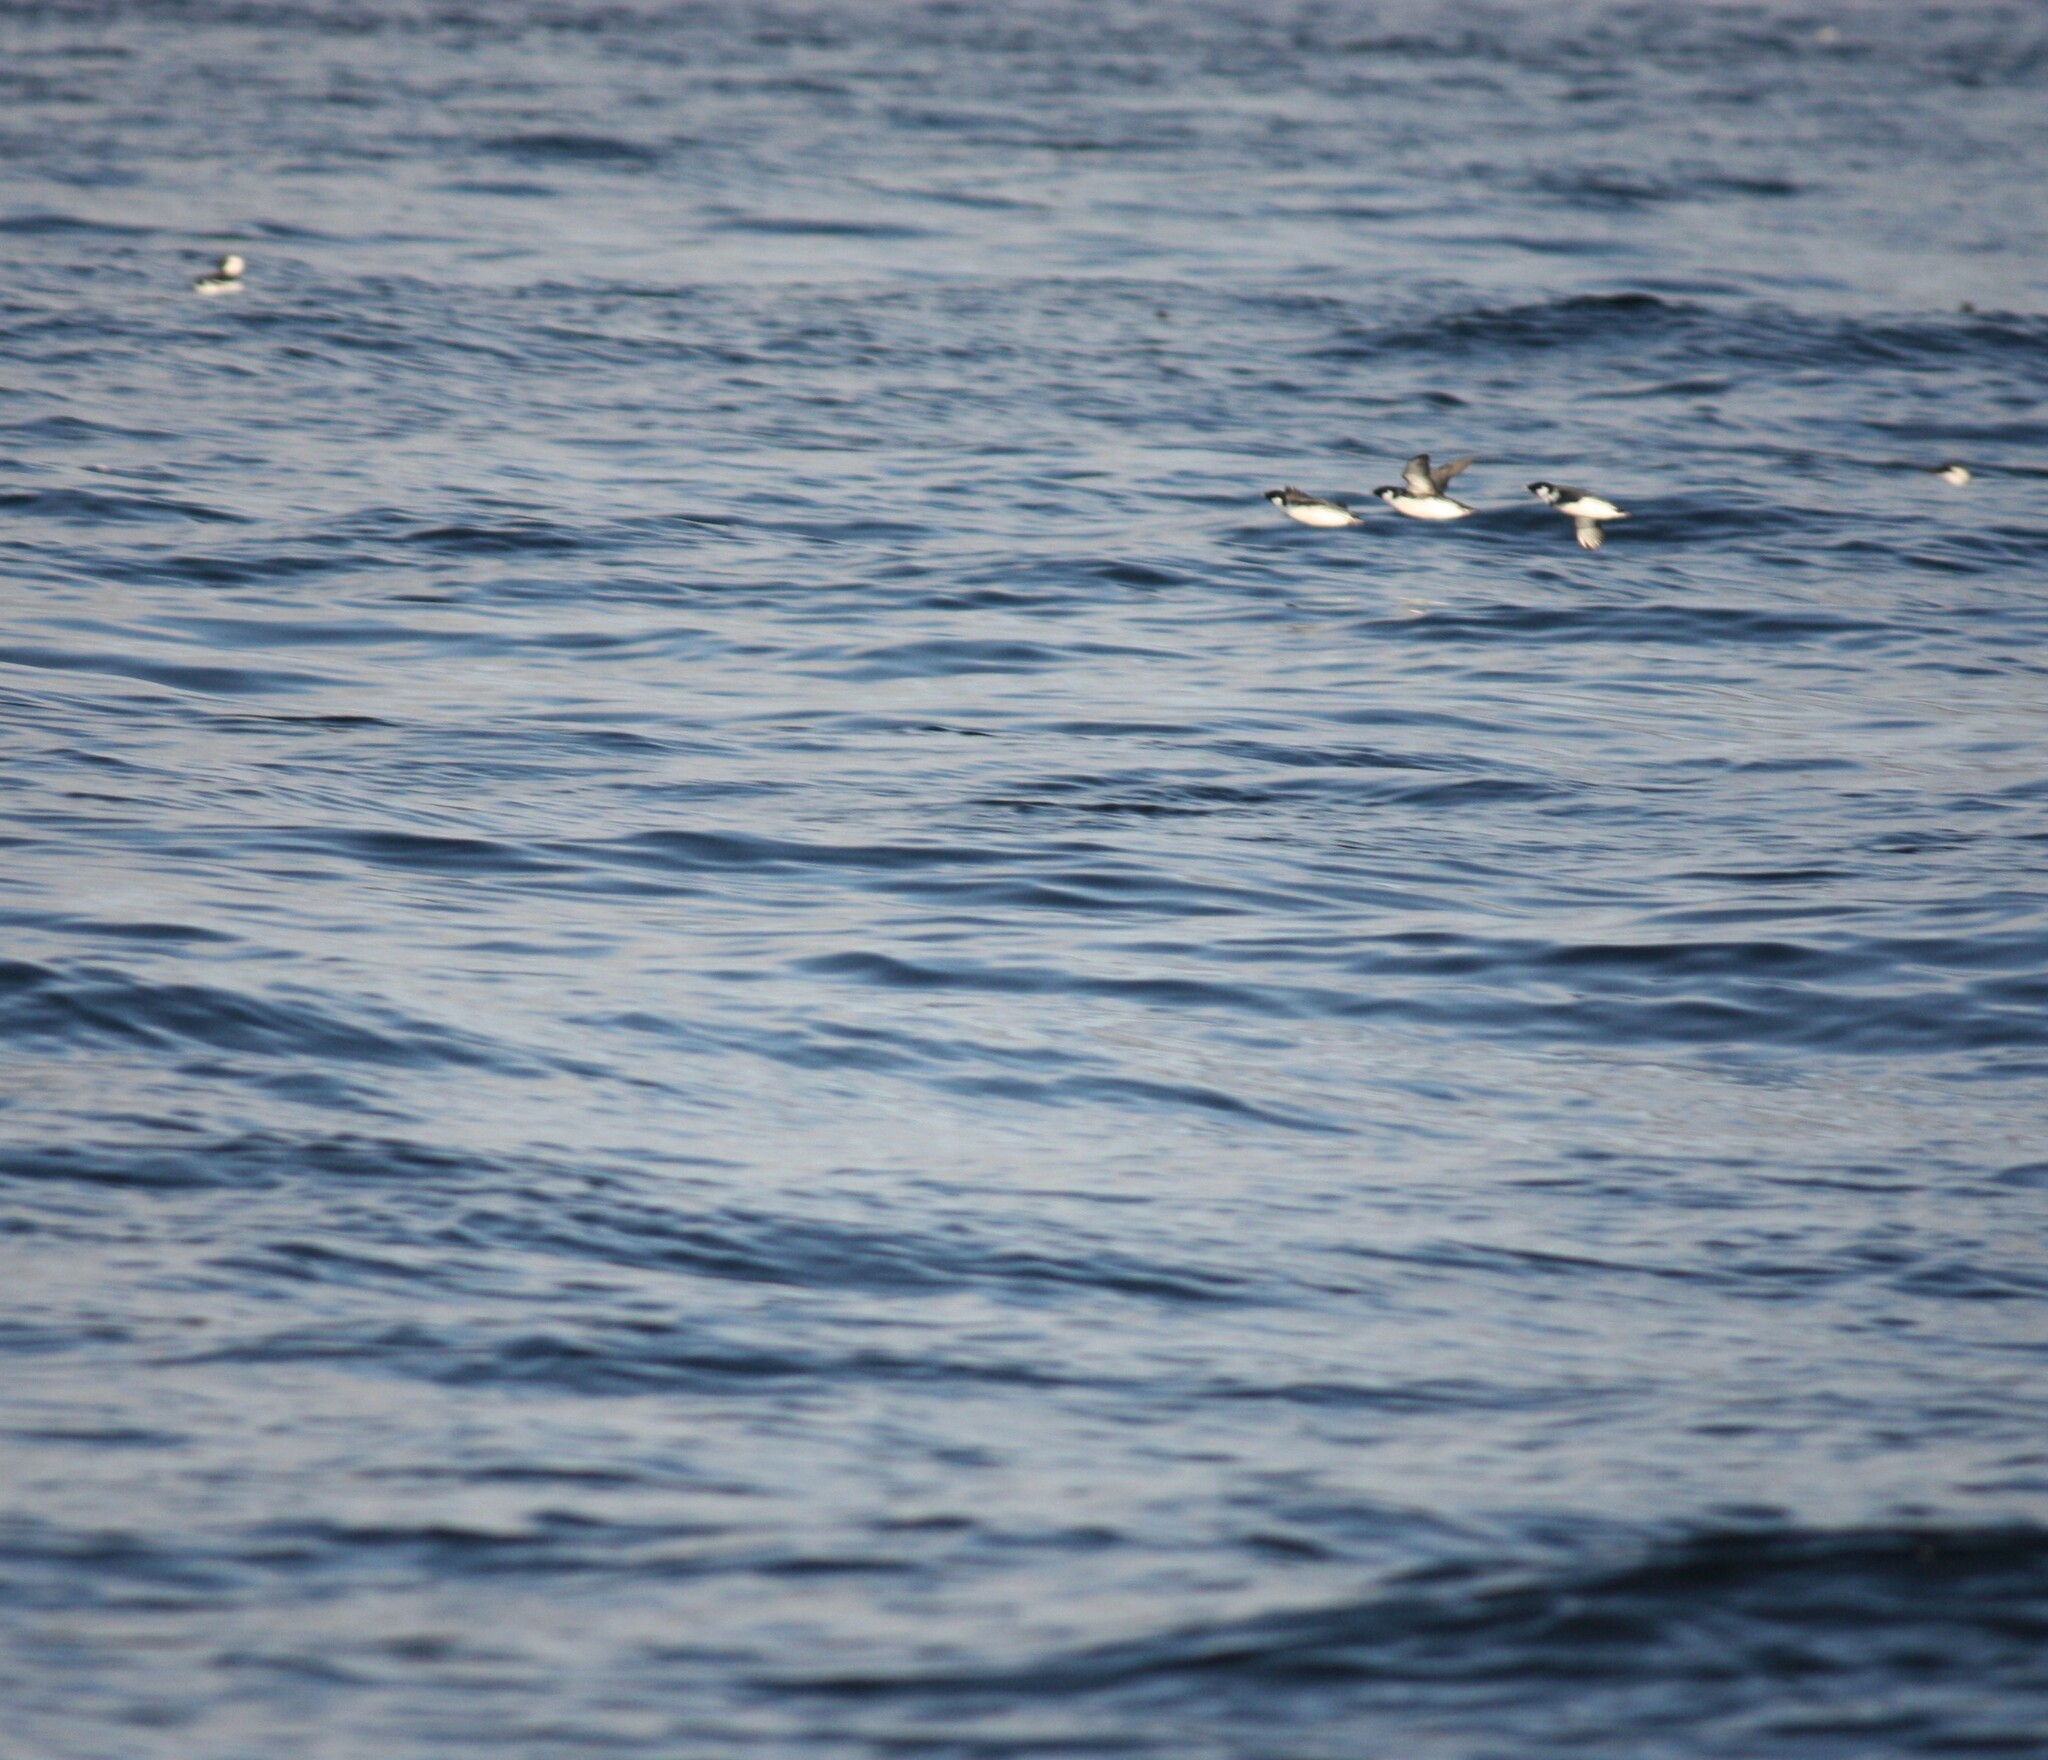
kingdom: Animalia
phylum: Chordata
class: Aves
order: Charadriiformes
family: Alcidae
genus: Synthliboramphus
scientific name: Synthliboramphus antiquus
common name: Ancient murrelet
